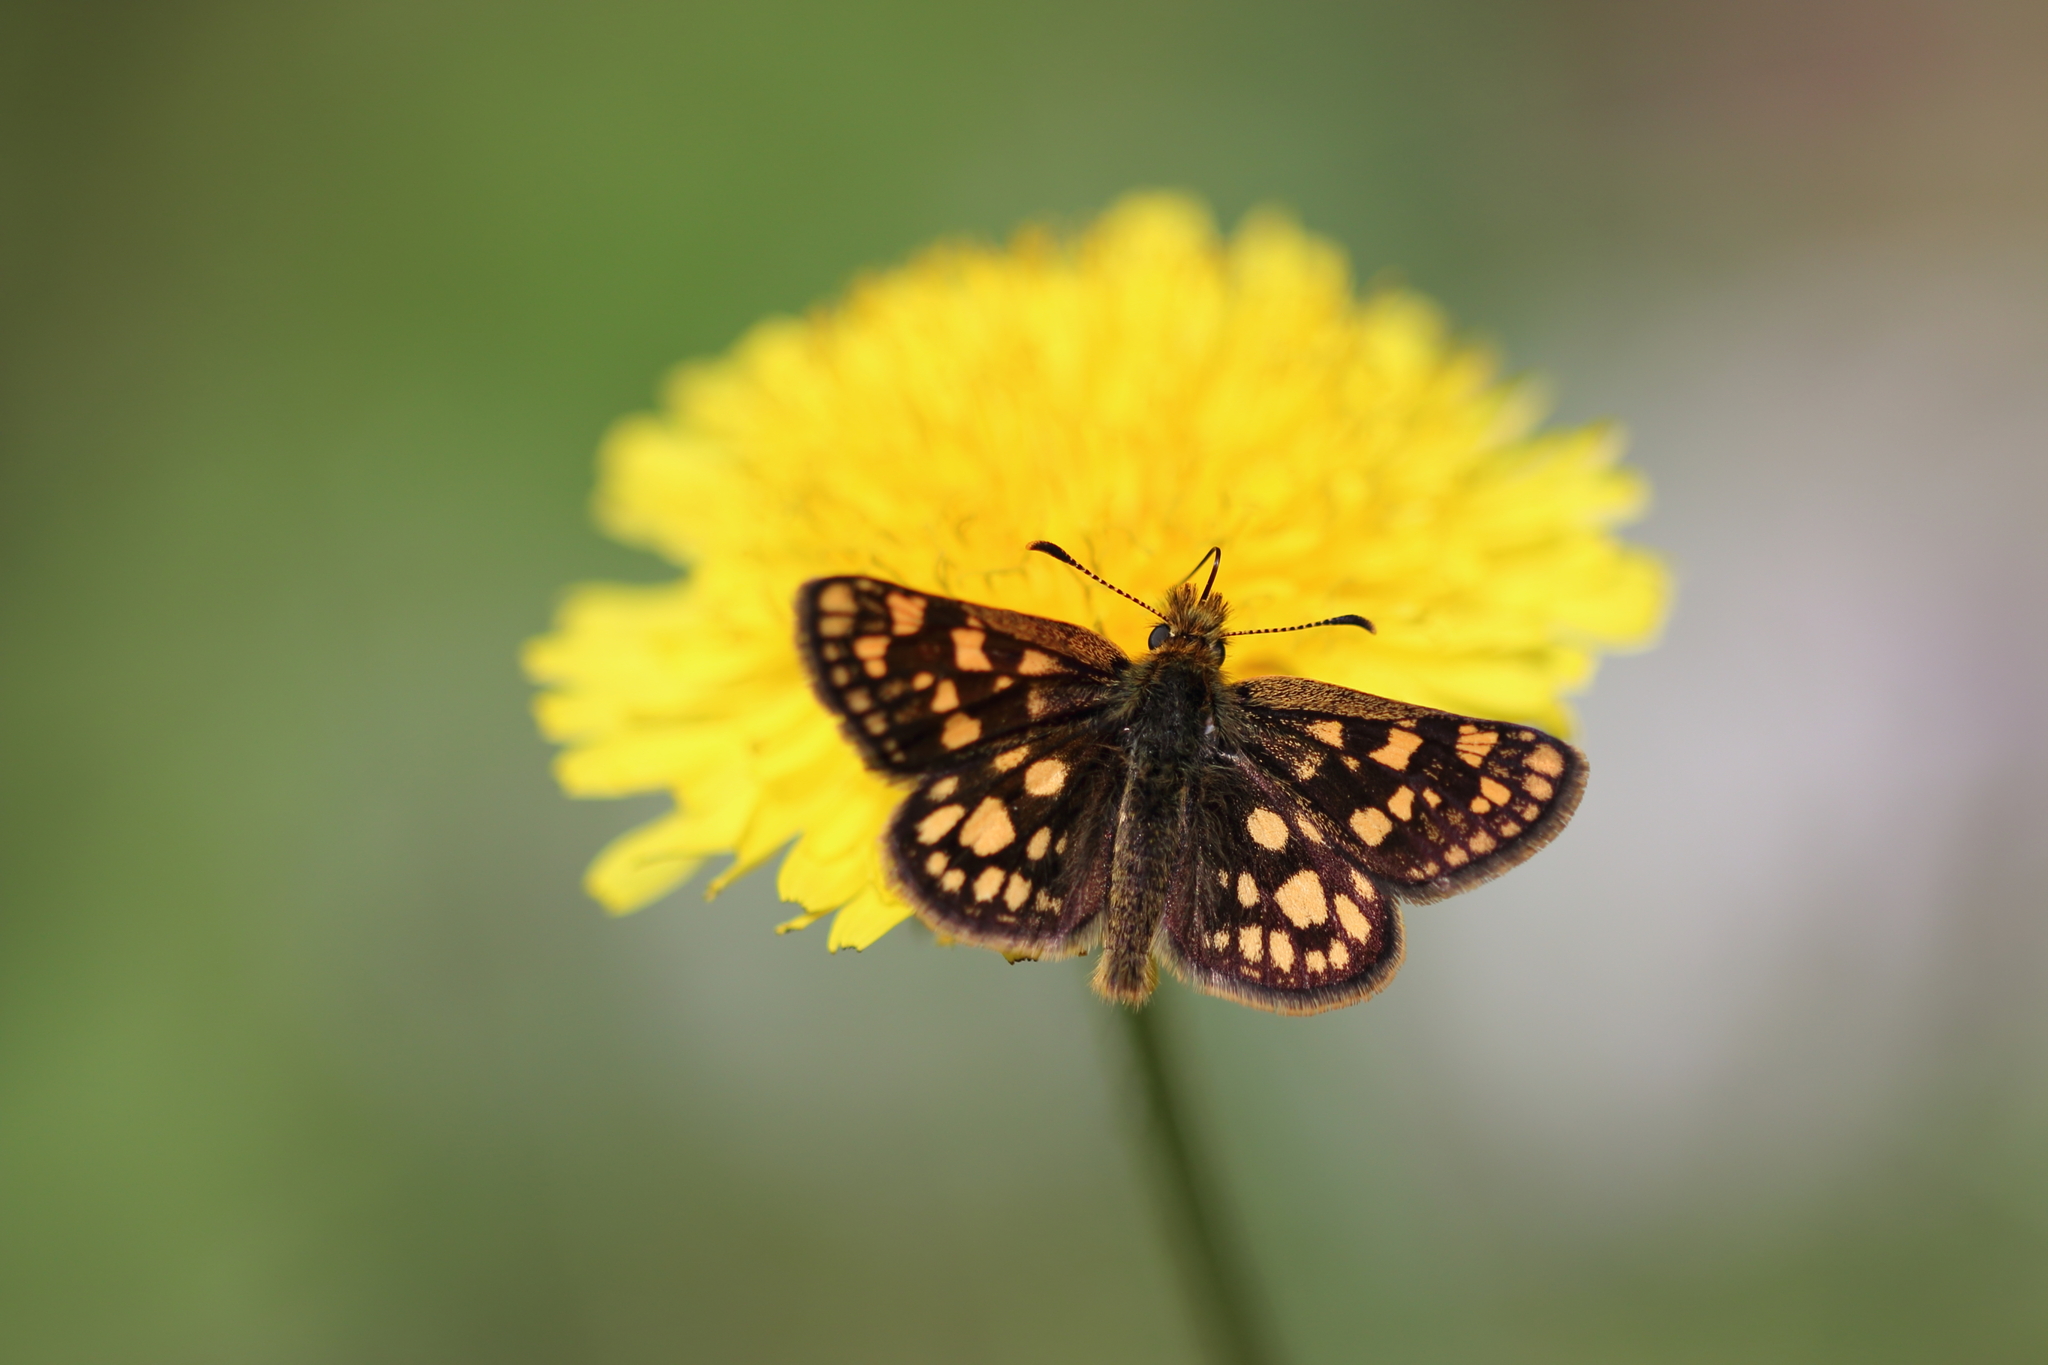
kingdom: Animalia
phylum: Arthropoda
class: Insecta
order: Lepidoptera
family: Hesperiidae
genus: Carterocephalus
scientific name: Carterocephalus skada
